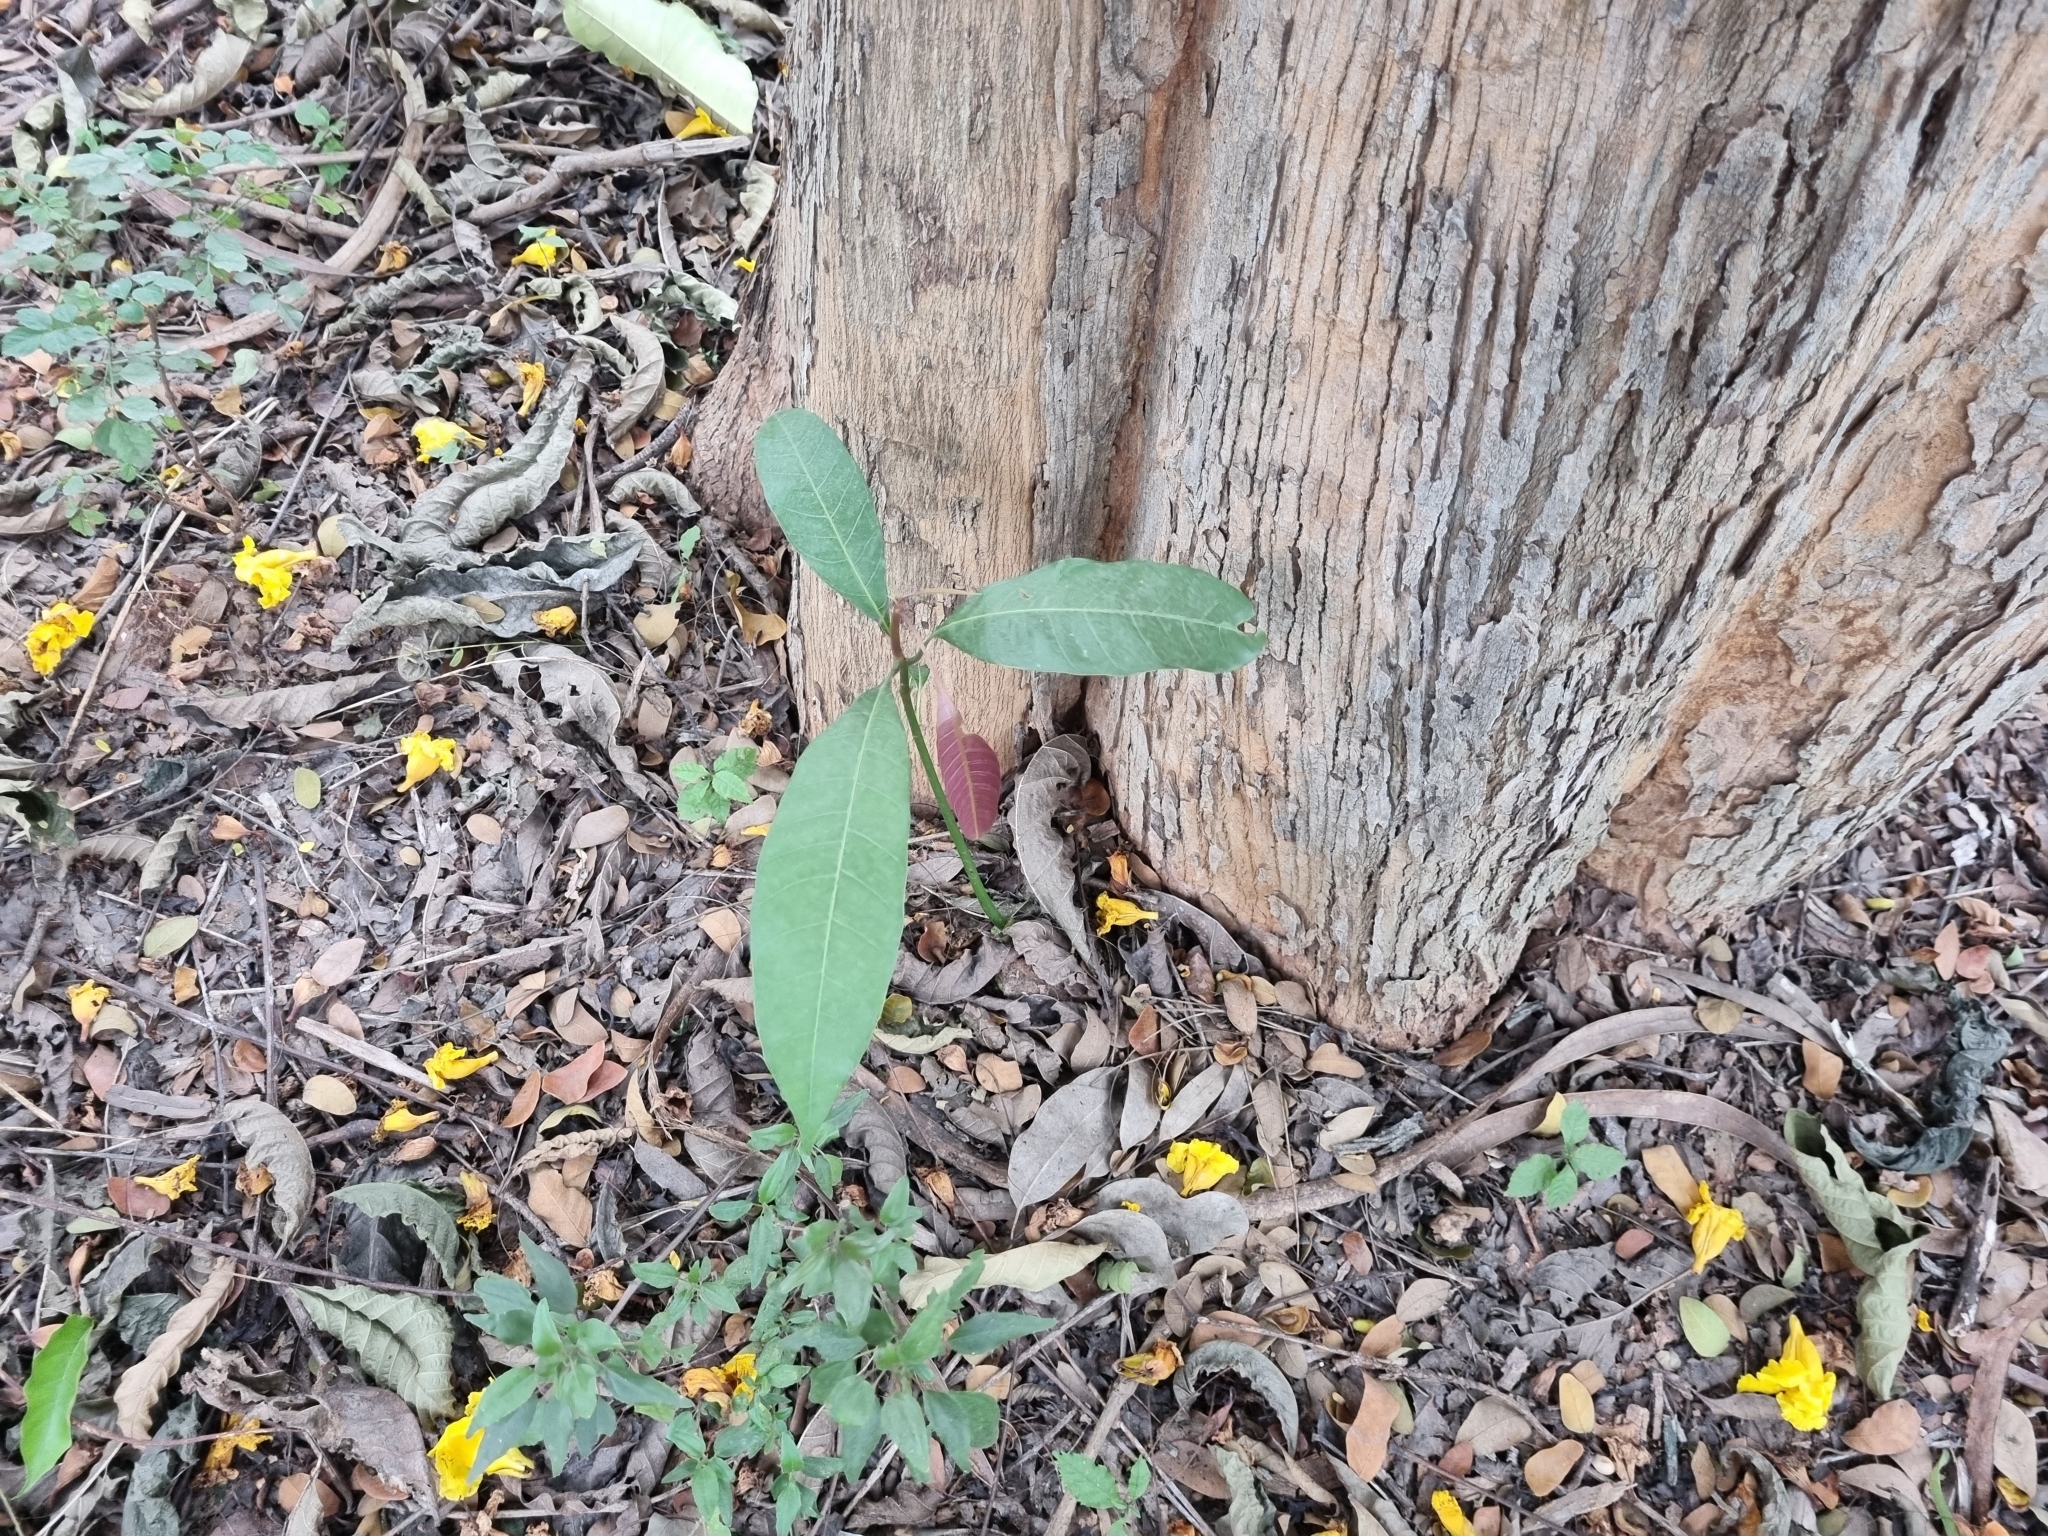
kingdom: Plantae
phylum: Tracheophyta
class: Magnoliopsida
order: Sapindales
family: Anacardiaceae
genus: Mangifera
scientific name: Mangifera indica
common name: Mango
